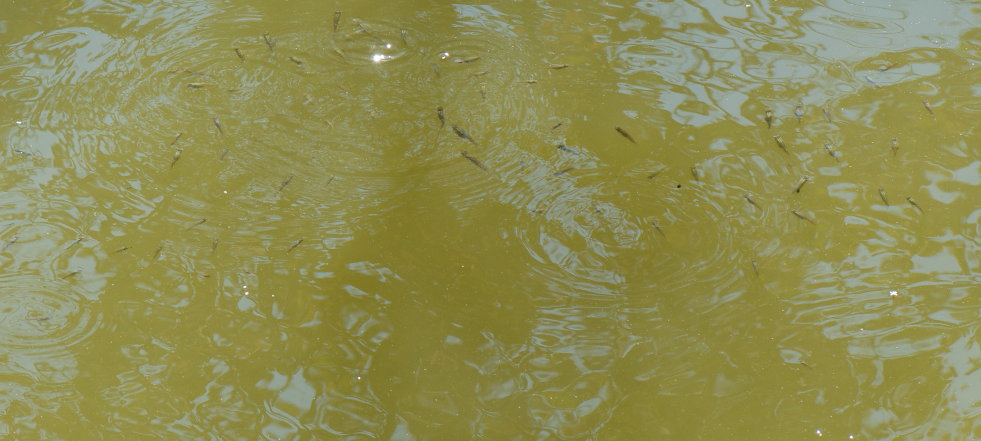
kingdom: Animalia
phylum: Chordata
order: Cyprinodontiformes
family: Poeciliidae
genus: Gambusia
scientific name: Gambusia affinis
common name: Mosquitofish
